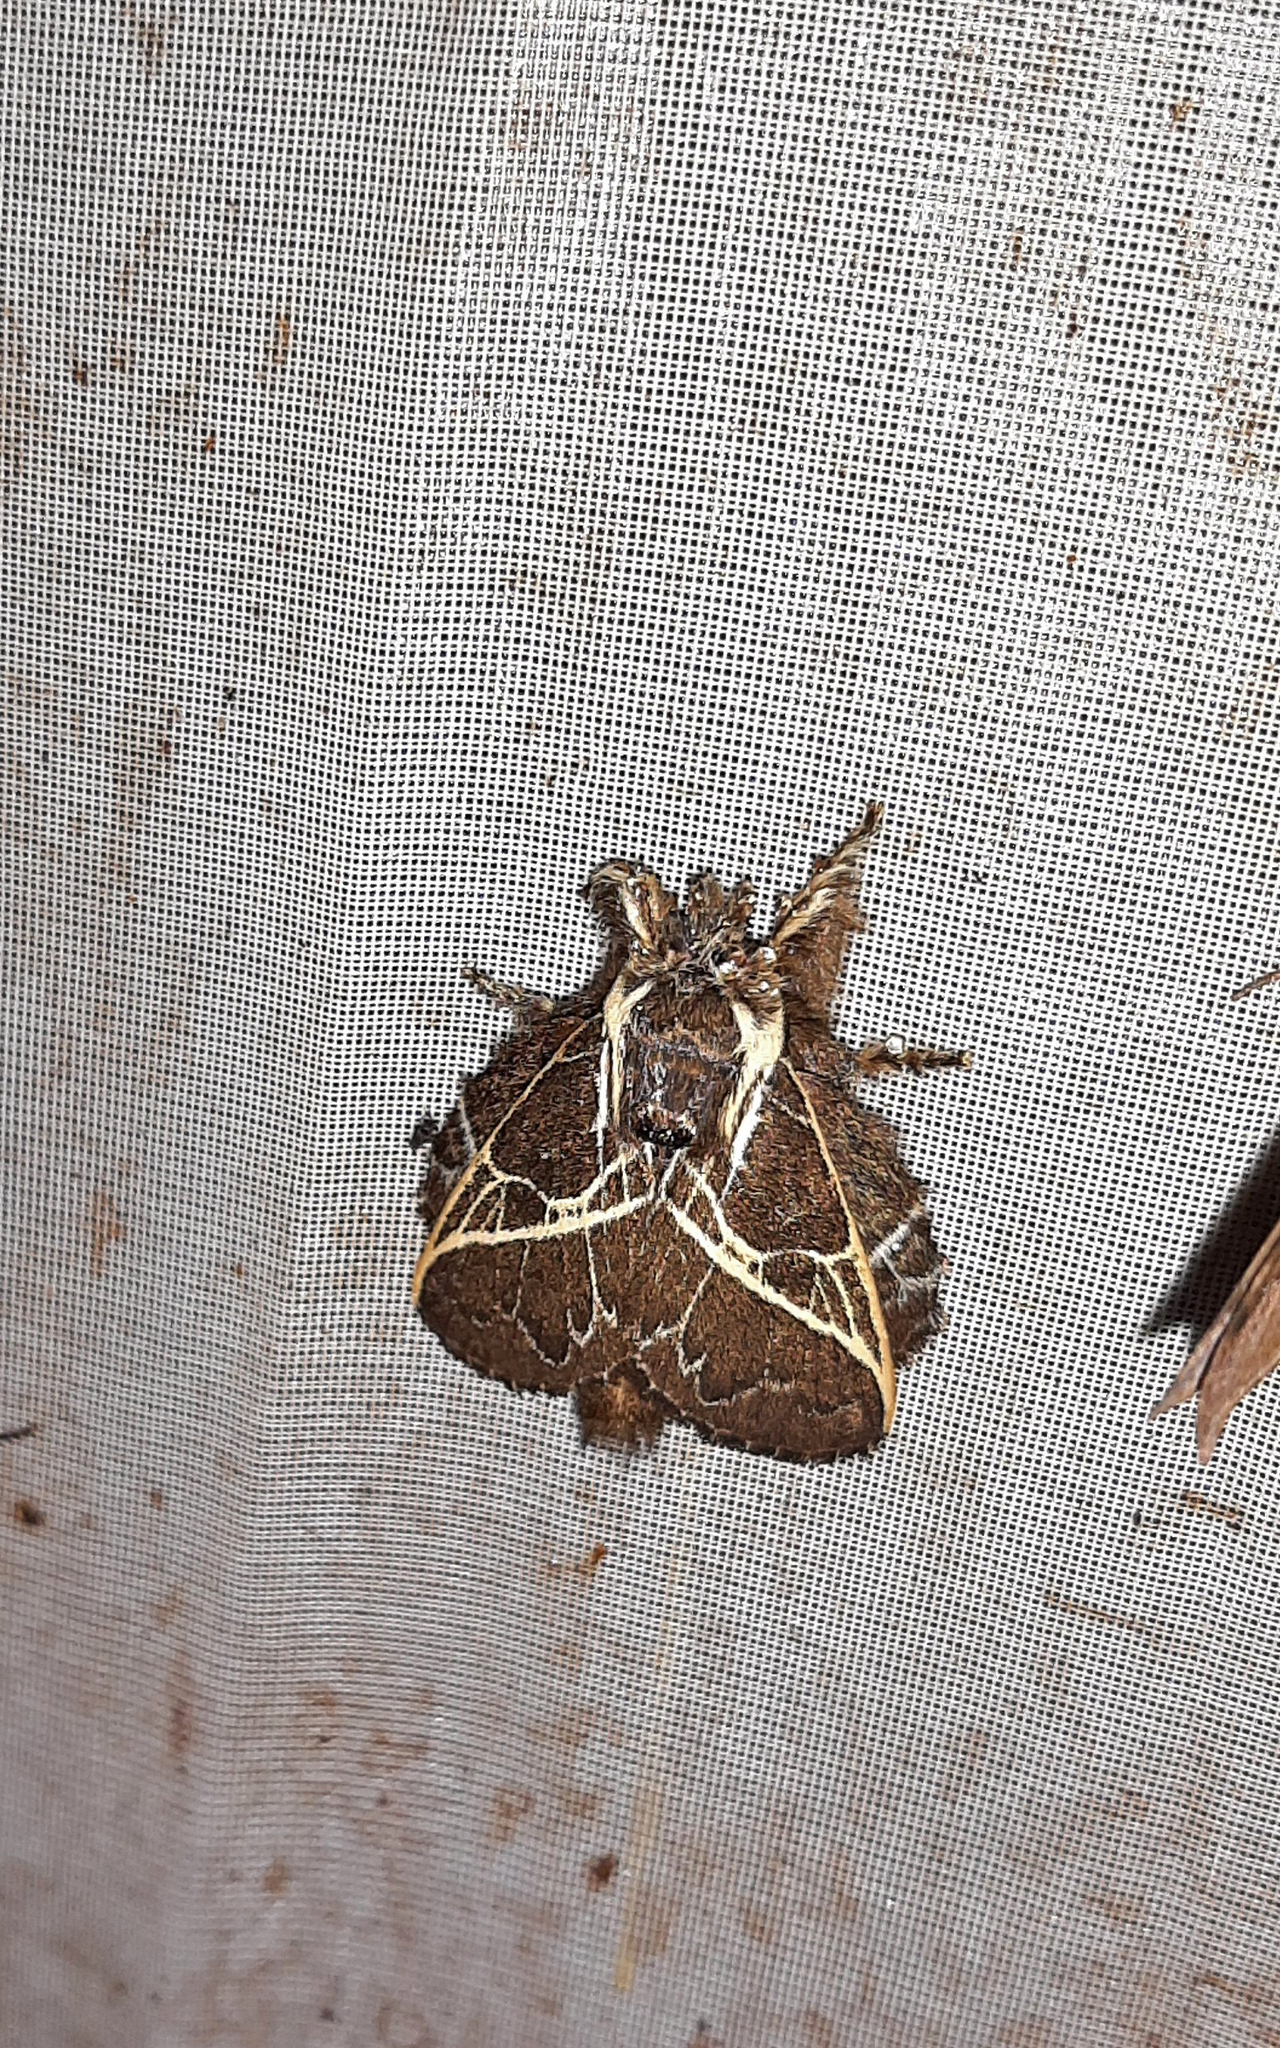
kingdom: Animalia
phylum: Arthropoda
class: Insecta
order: Lepidoptera
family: Lasiocampidae
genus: Euglyphis
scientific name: Euglyphis laudia
